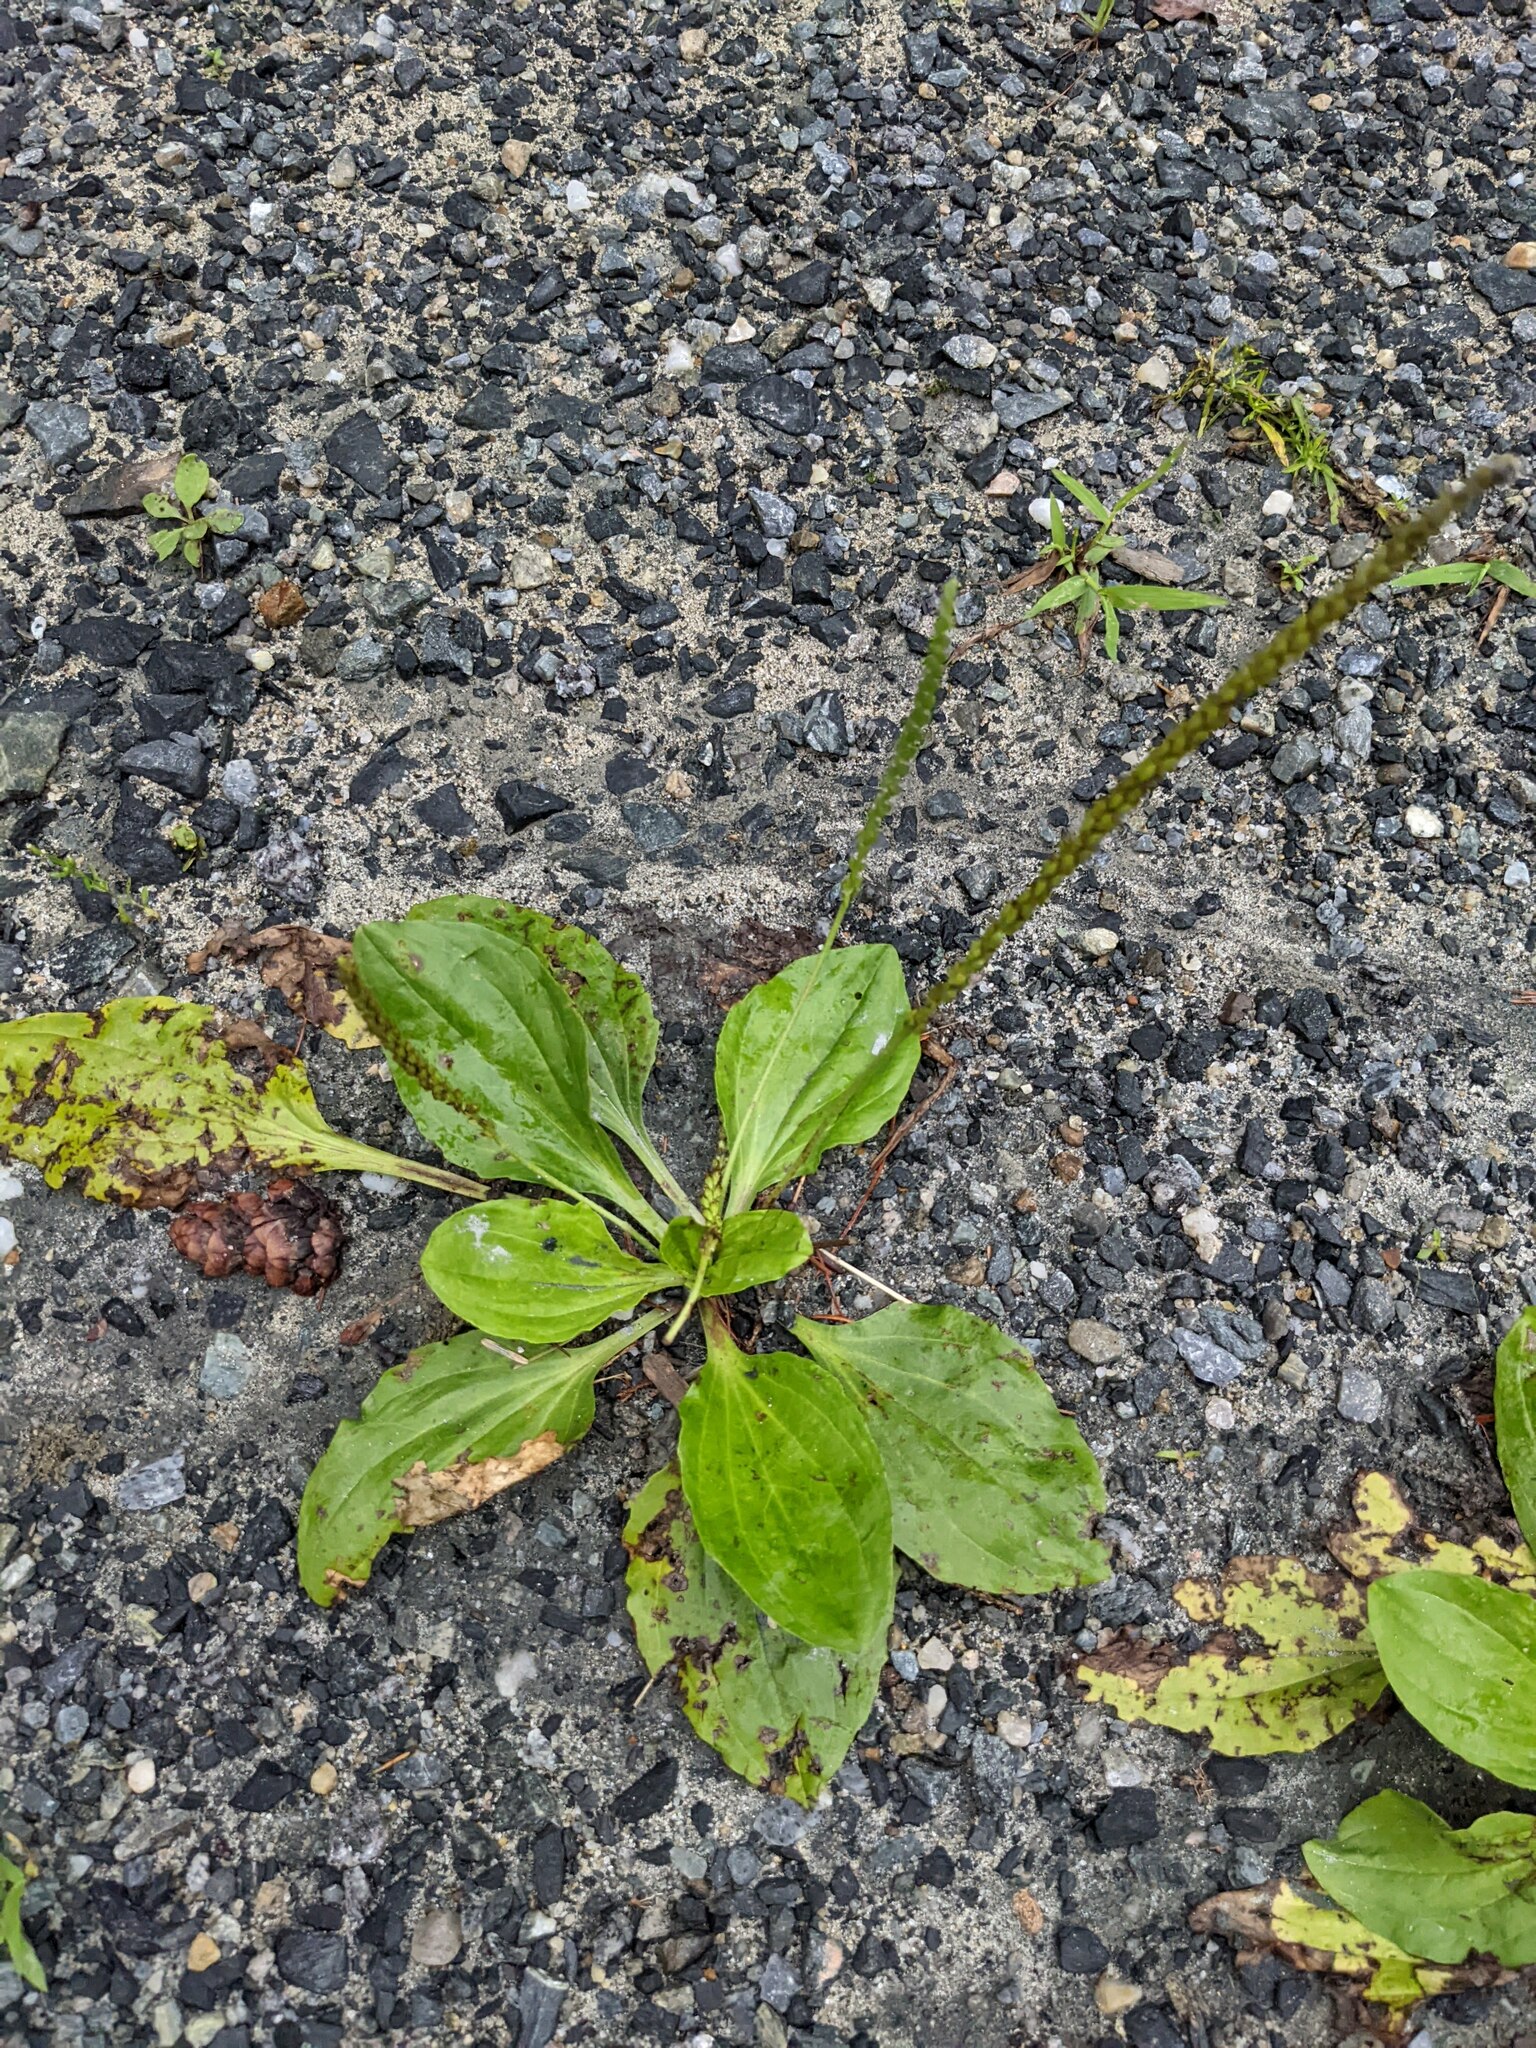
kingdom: Plantae
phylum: Tracheophyta
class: Magnoliopsida
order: Lamiales
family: Plantaginaceae
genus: Plantago
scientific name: Plantago major
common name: Common plantain
